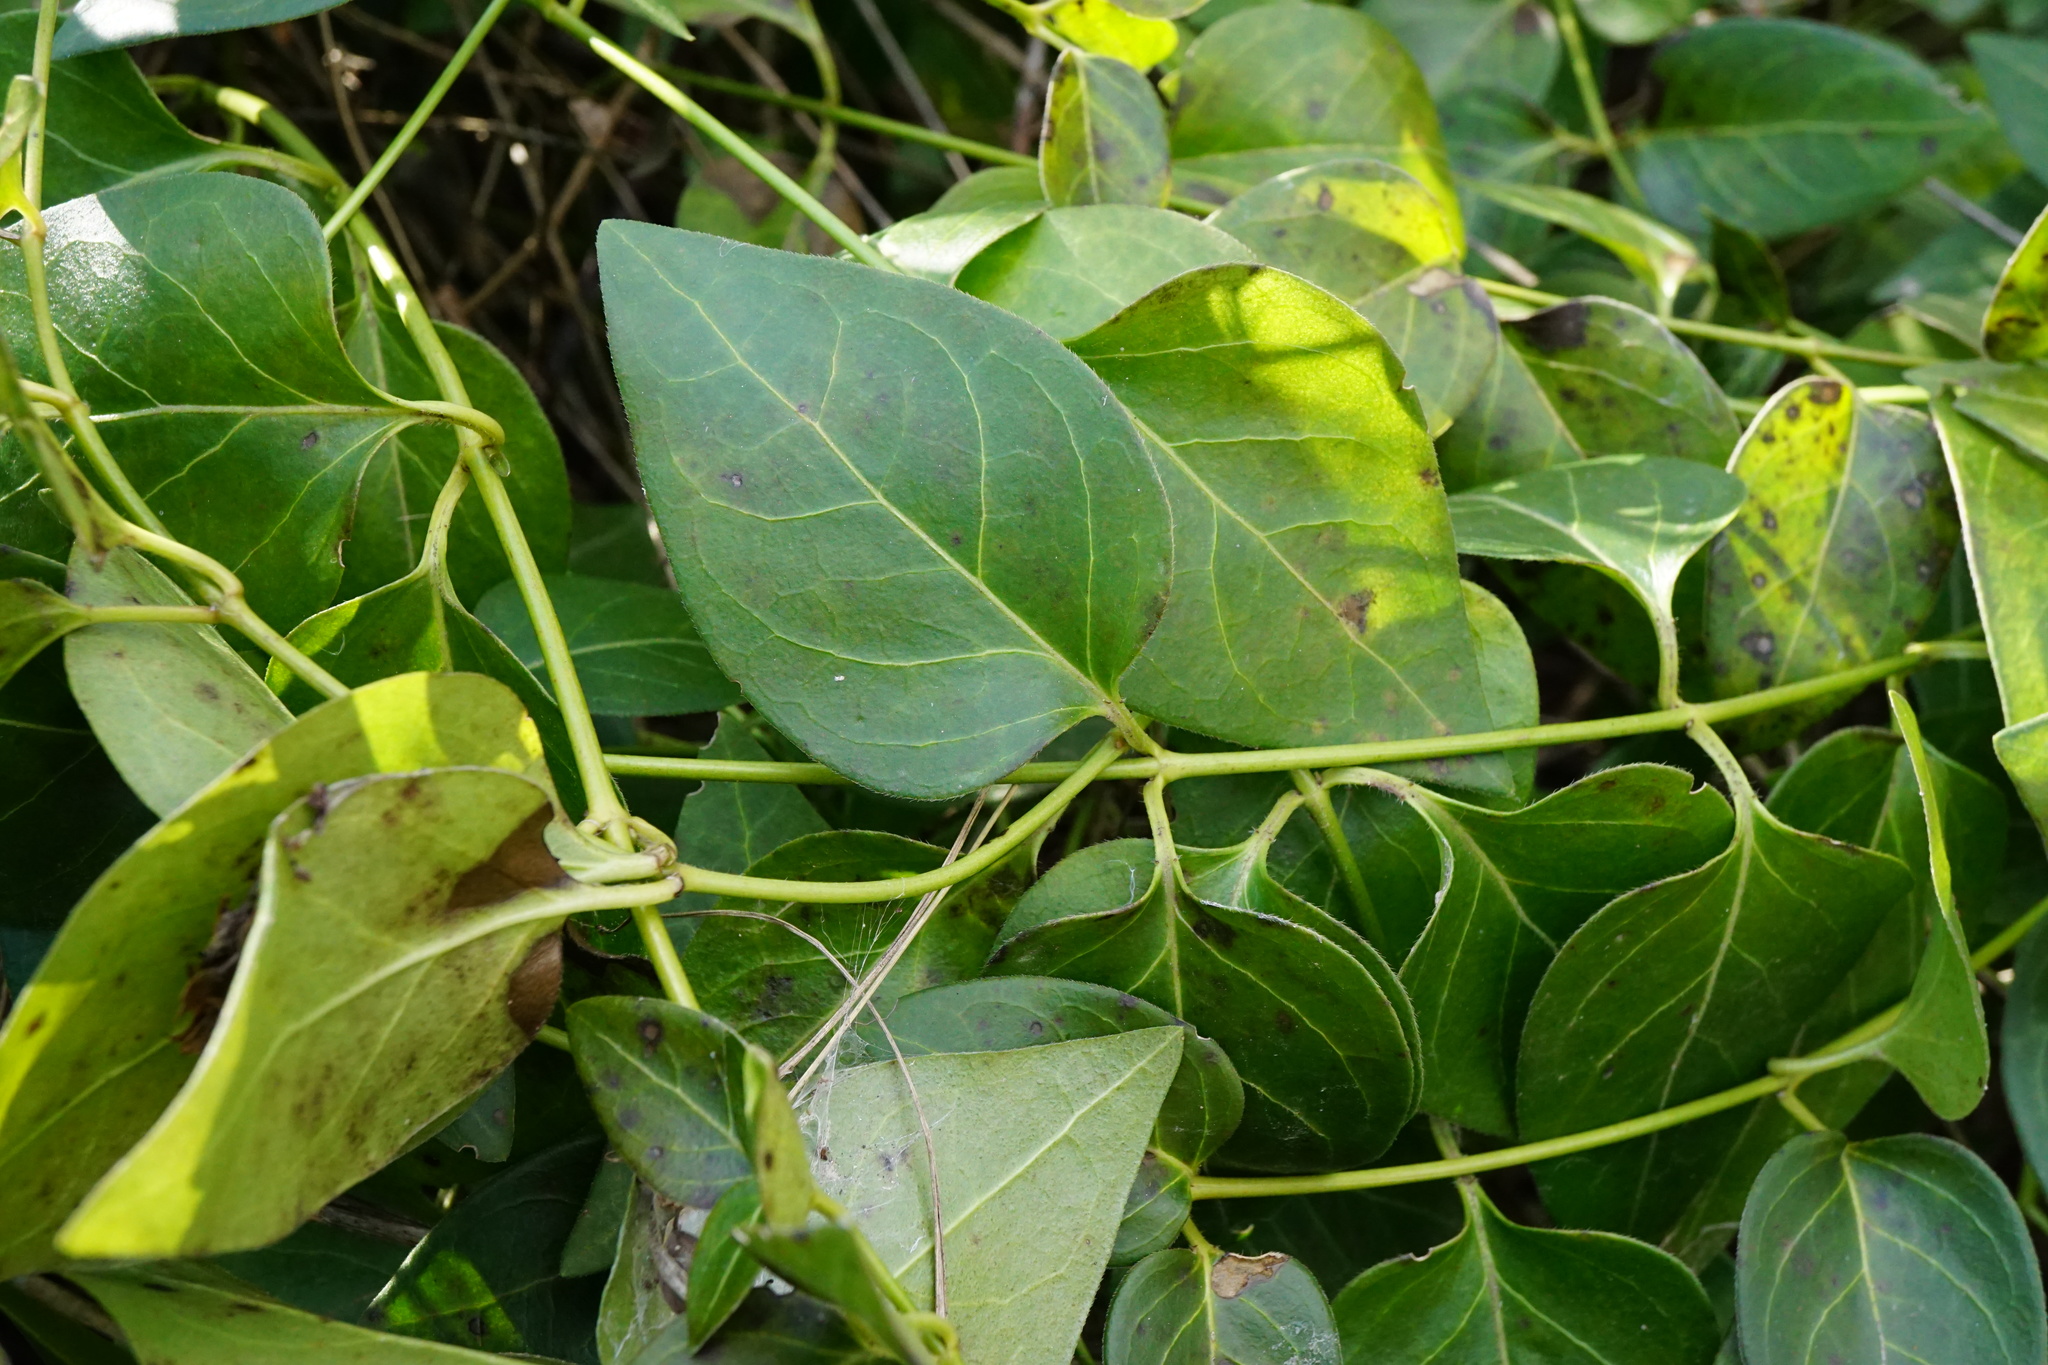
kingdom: Plantae
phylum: Tracheophyta
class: Magnoliopsida
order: Gentianales
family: Apocynaceae
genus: Vinca
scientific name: Vinca major
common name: Greater periwinkle
